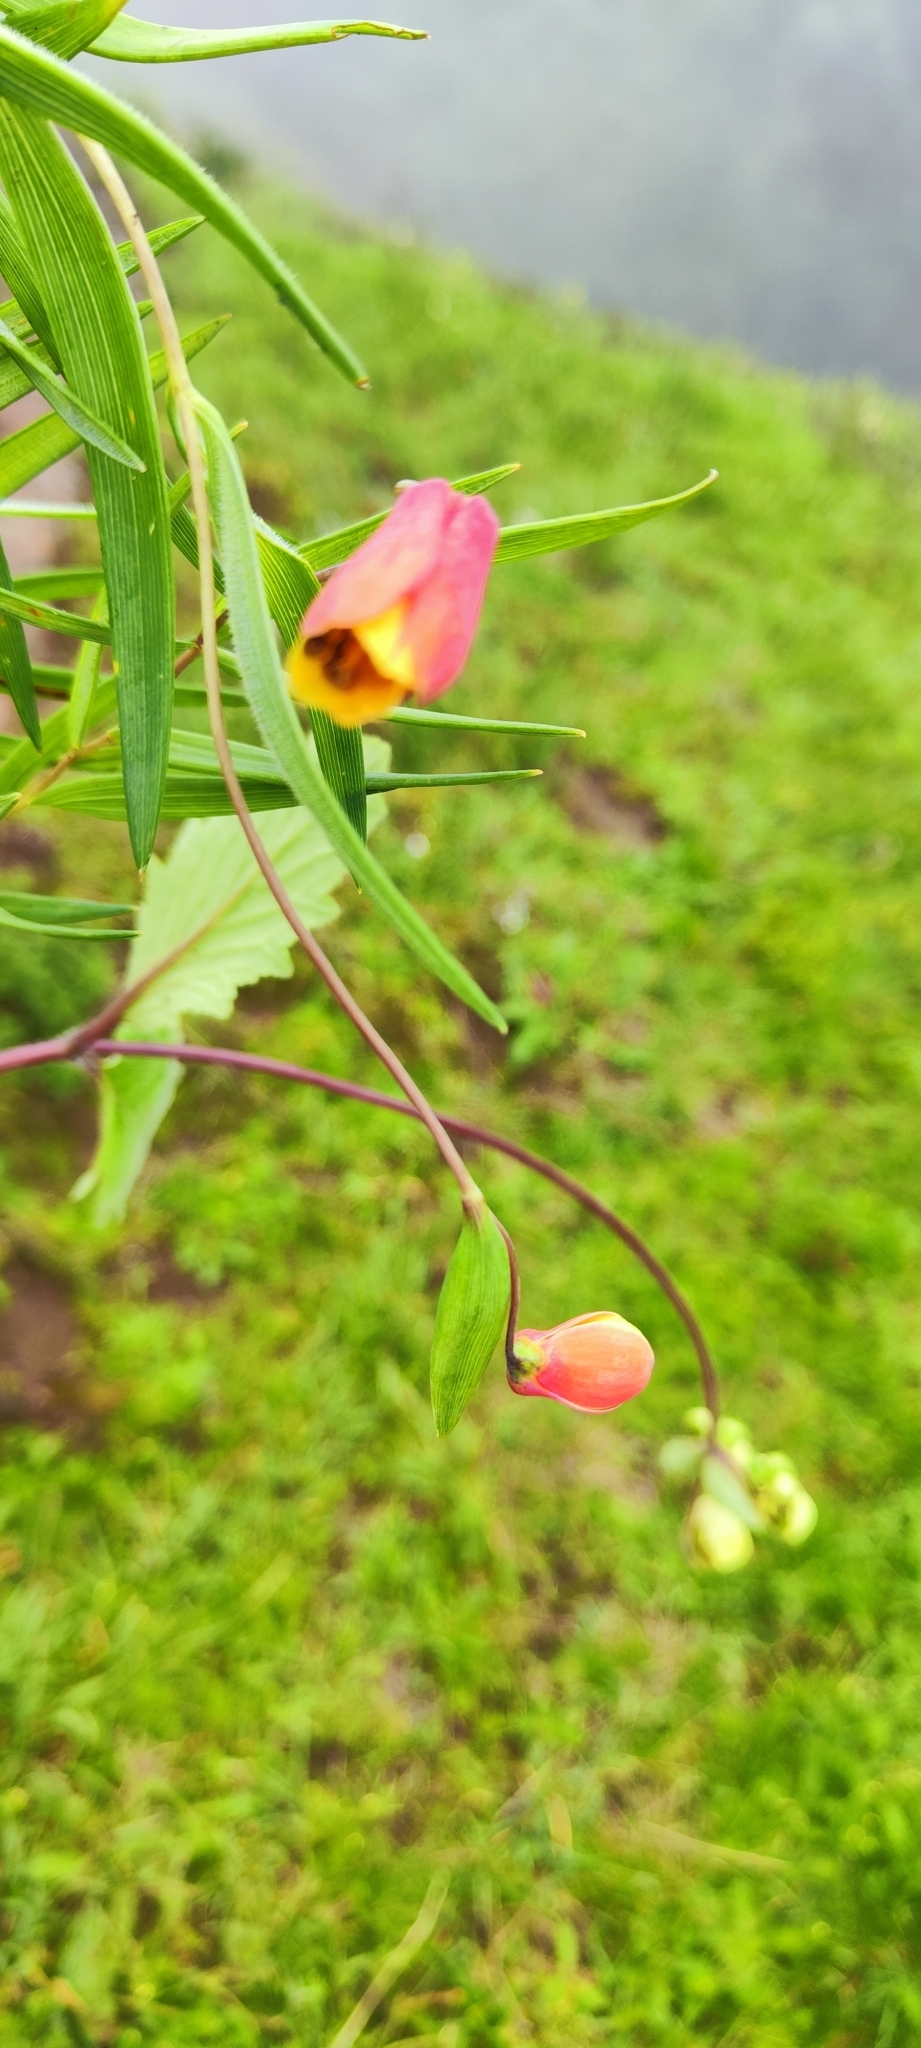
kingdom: Plantae
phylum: Tracheophyta
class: Liliopsida
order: Liliales
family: Alstroemeriaceae
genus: Bomarea
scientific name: Bomarea vargasii
